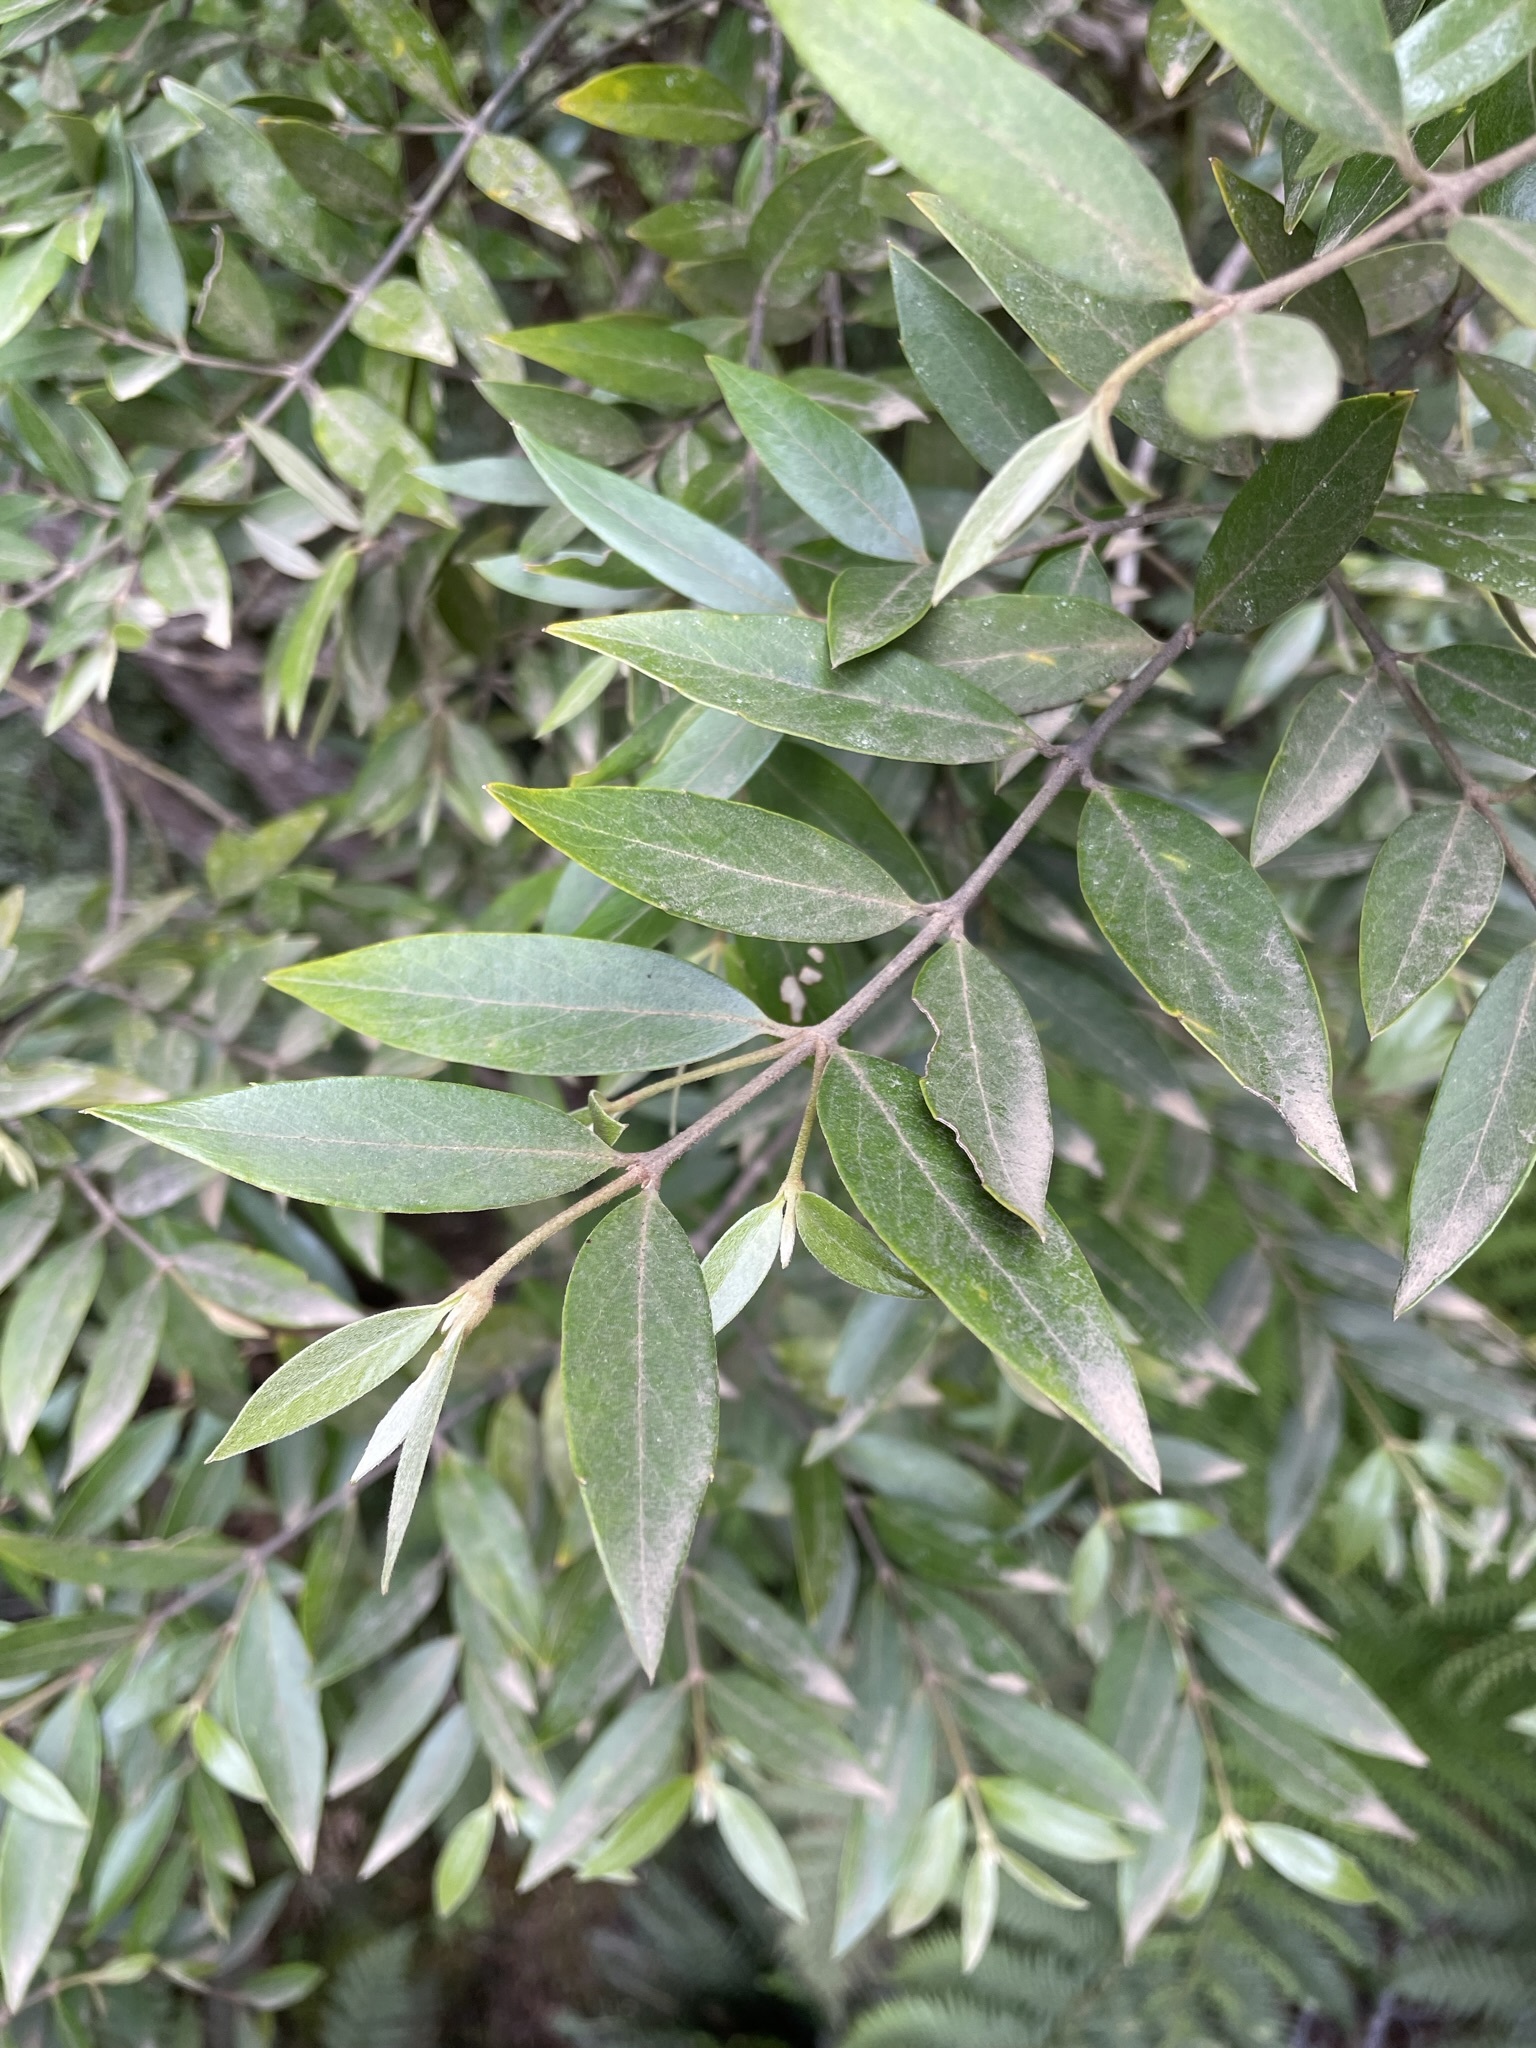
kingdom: Plantae
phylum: Tracheophyta
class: Magnoliopsida
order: Laurales
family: Atherospermataceae
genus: Atherosperma
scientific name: Atherosperma moschatum
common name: Tasmanian-sassafras
